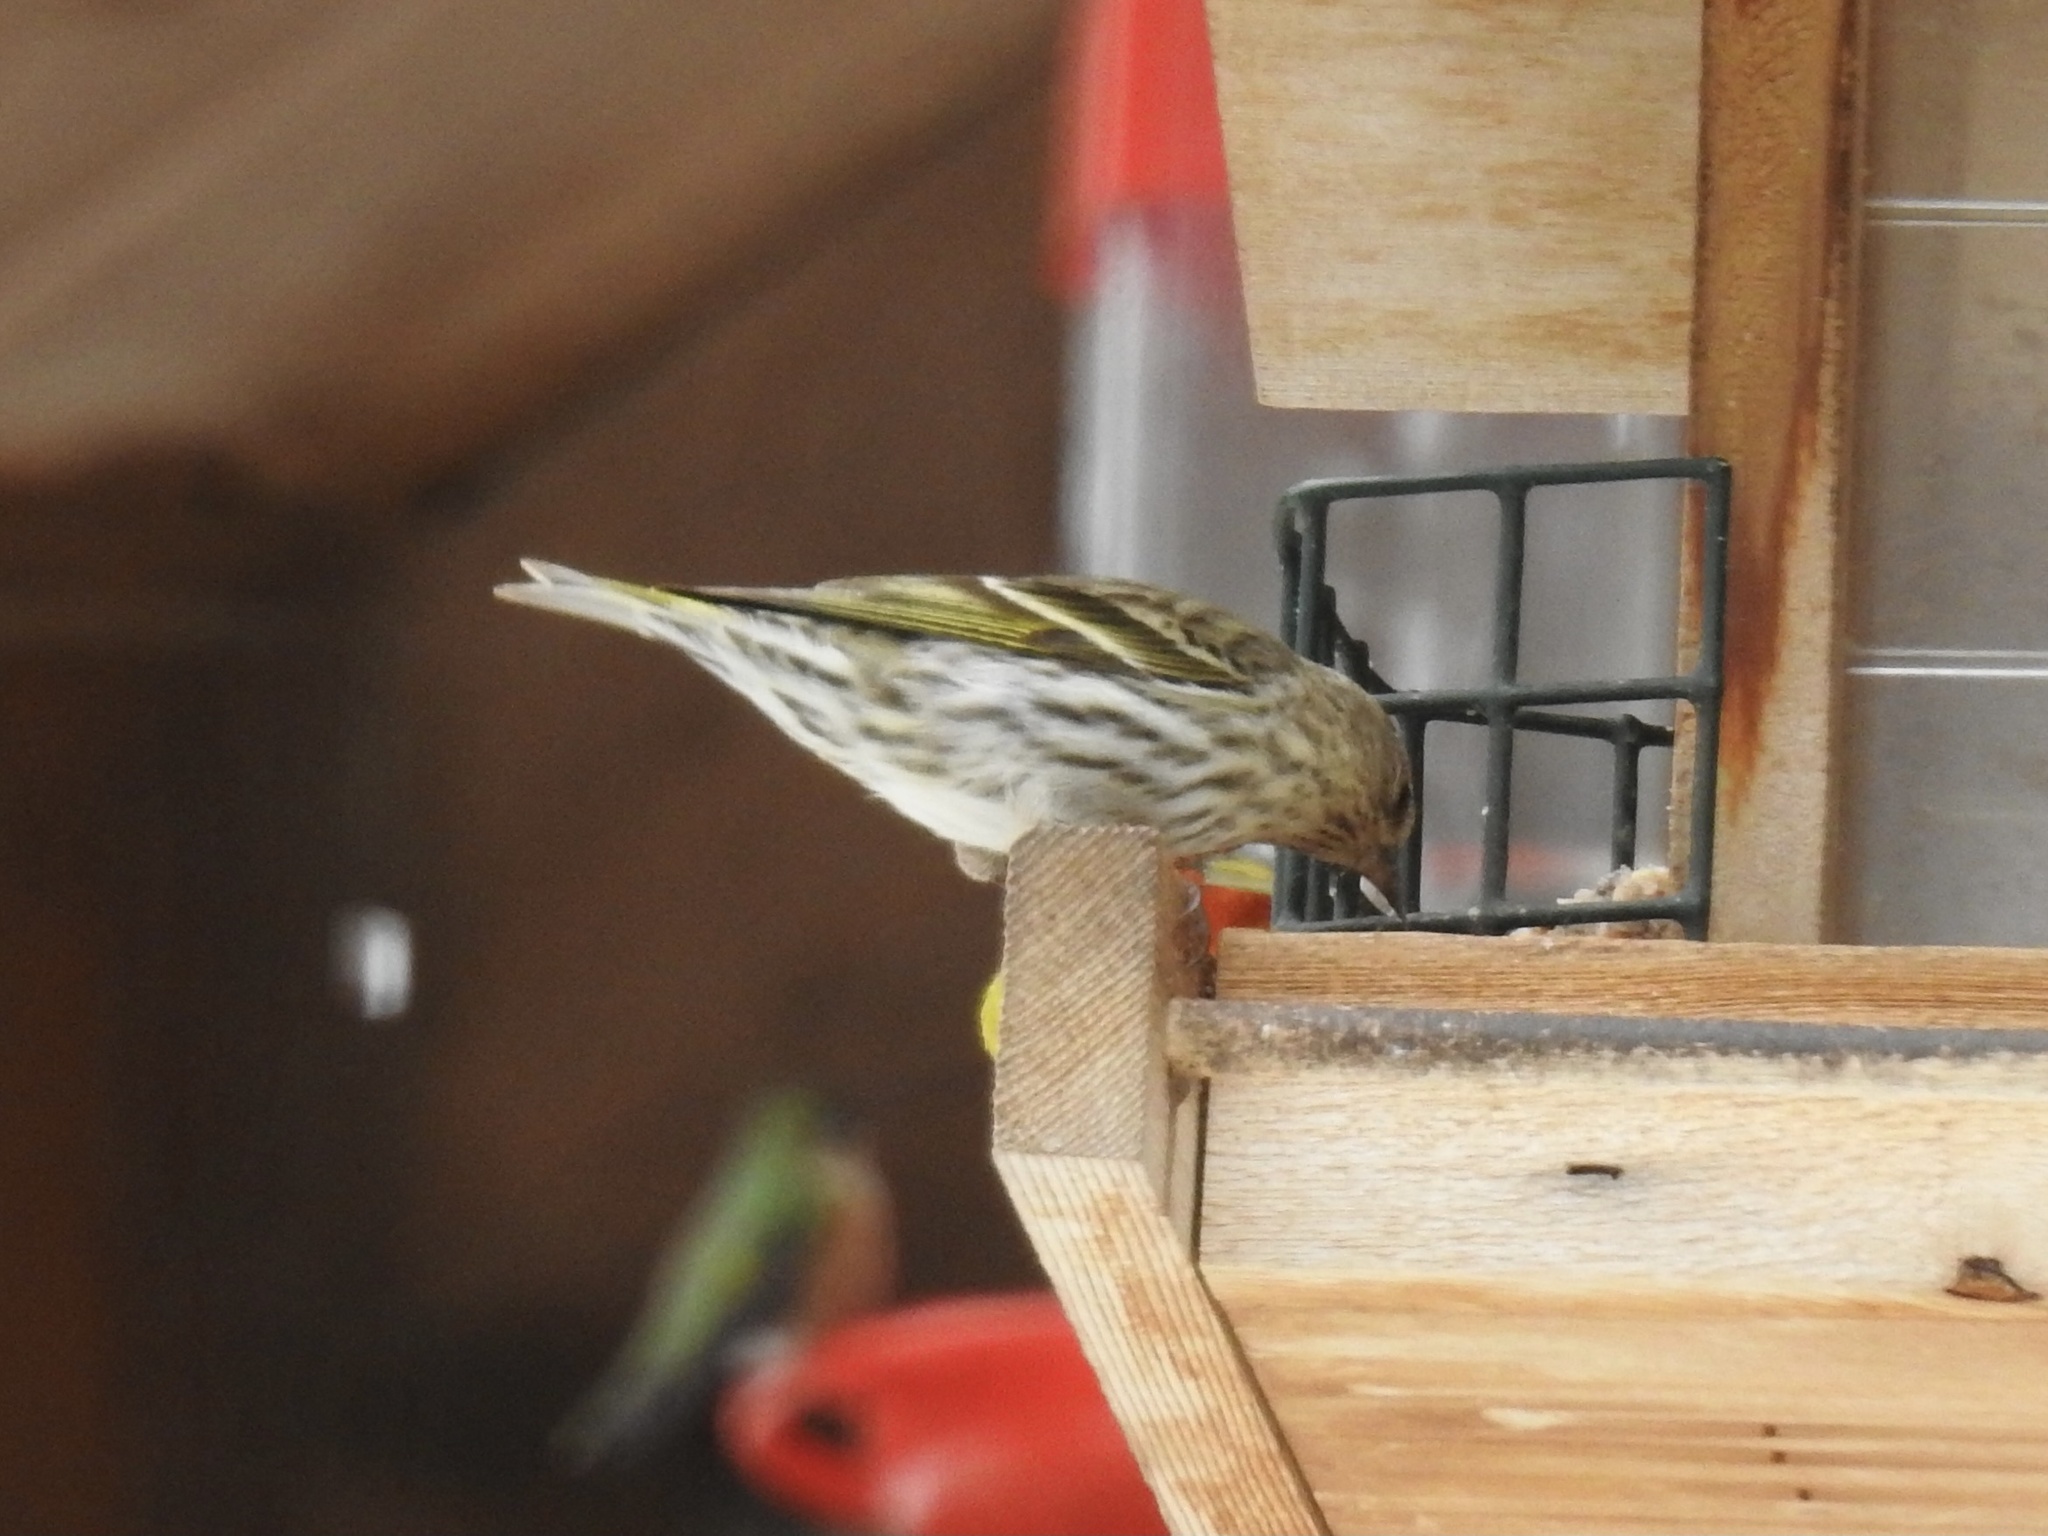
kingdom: Animalia
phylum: Chordata
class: Aves
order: Passeriformes
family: Fringillidae
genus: Spinus
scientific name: Spinus pinus
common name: Pine siskin
